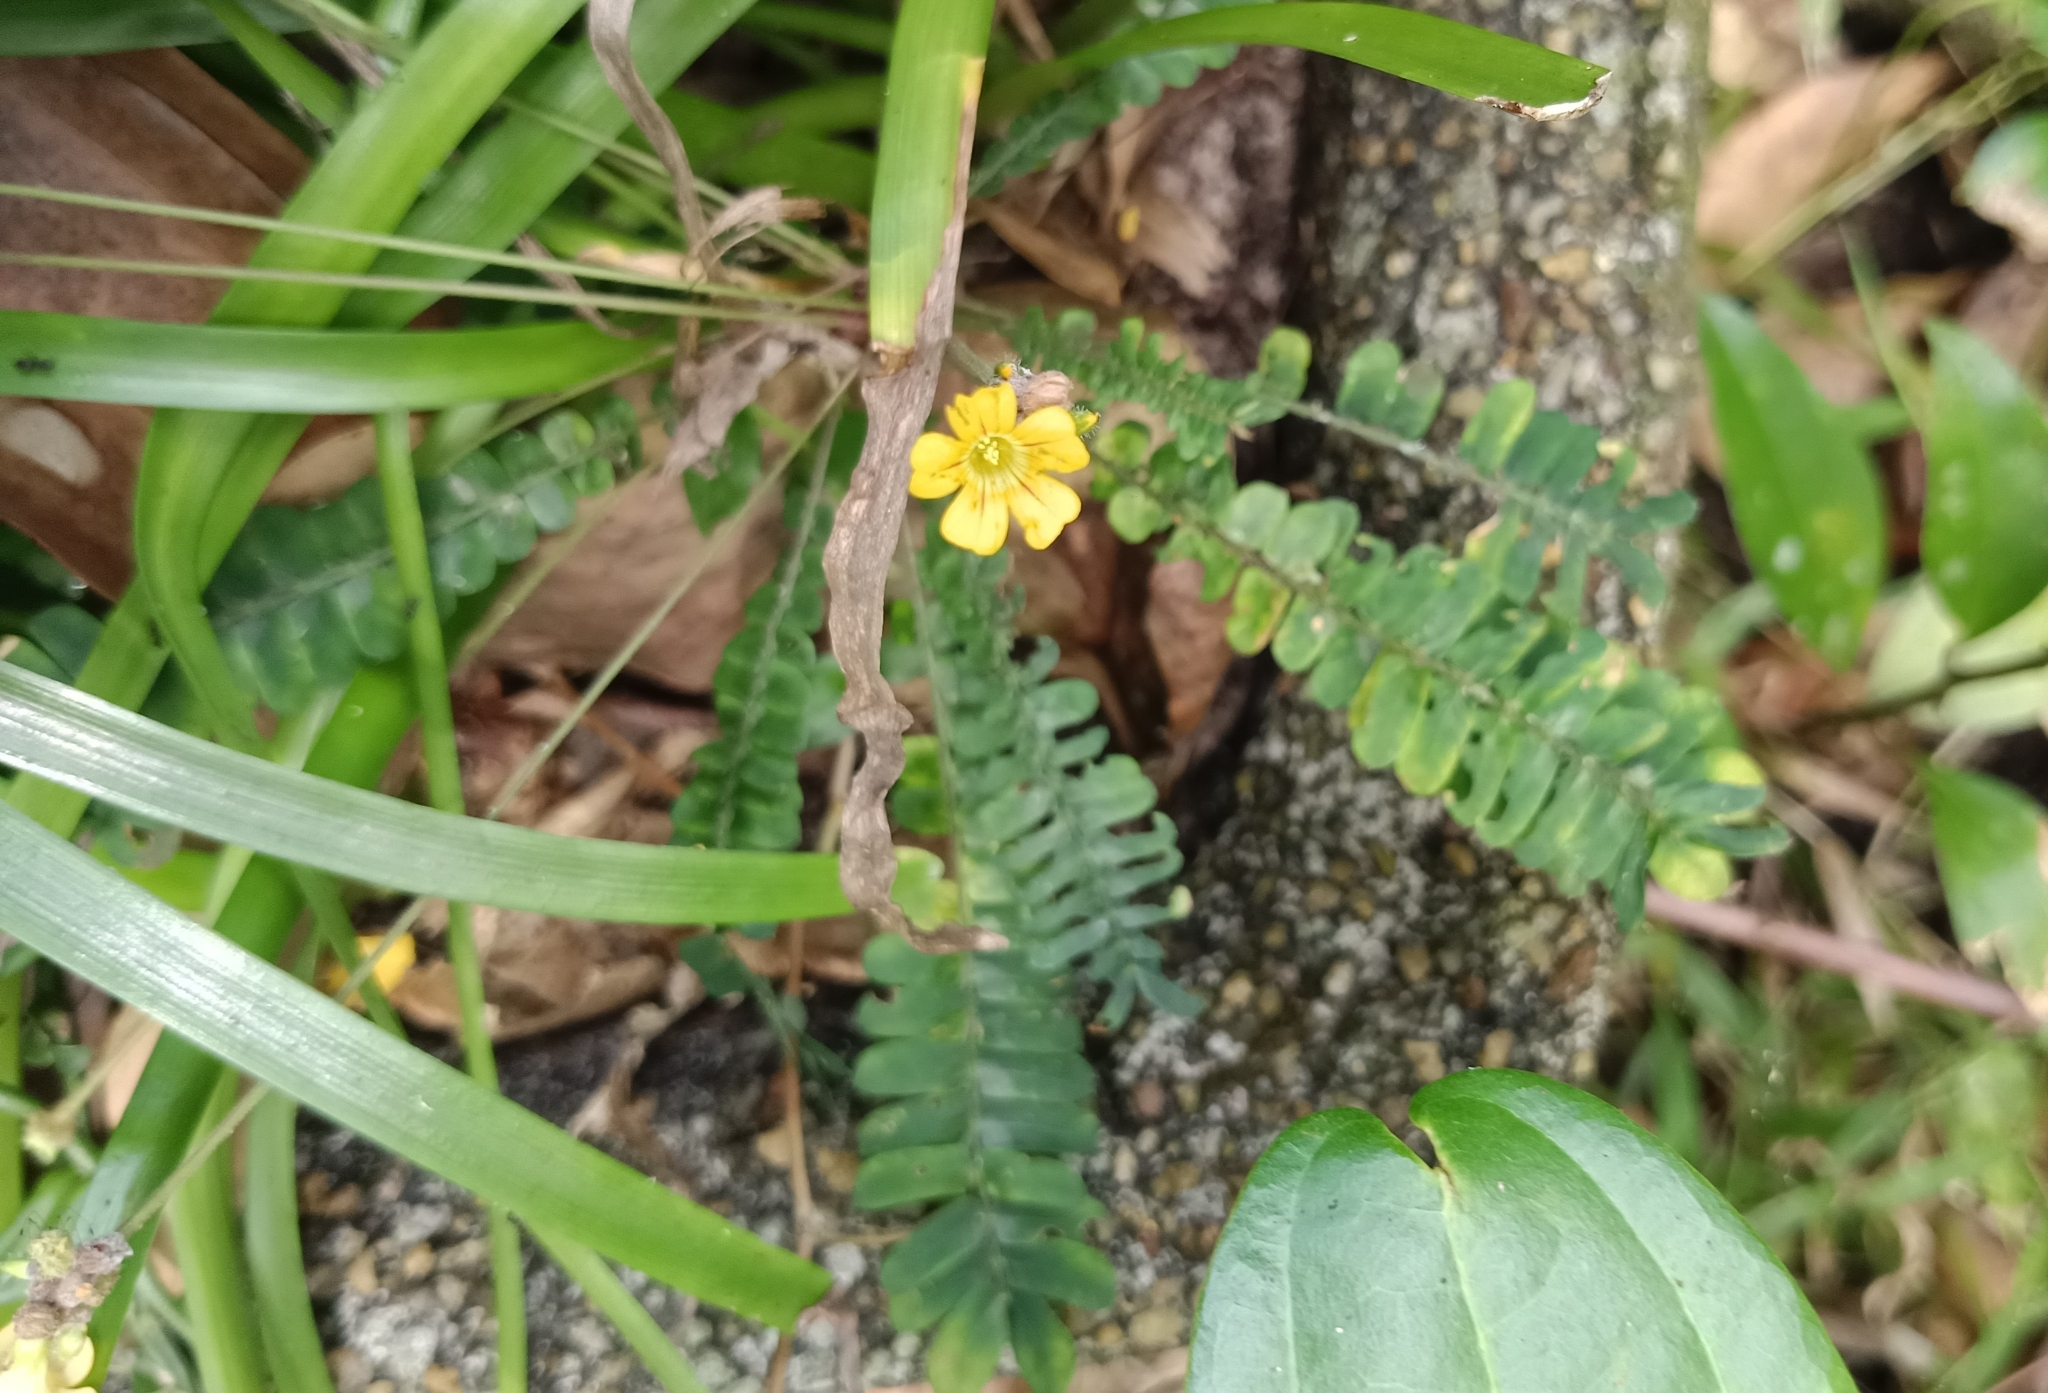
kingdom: Plantae
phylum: Tracheophyta
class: Magnoliopsida
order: Oxalidales
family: Oxalidaceae
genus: Biophytum
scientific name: Biophytum sensitivum
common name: Lifeplant
